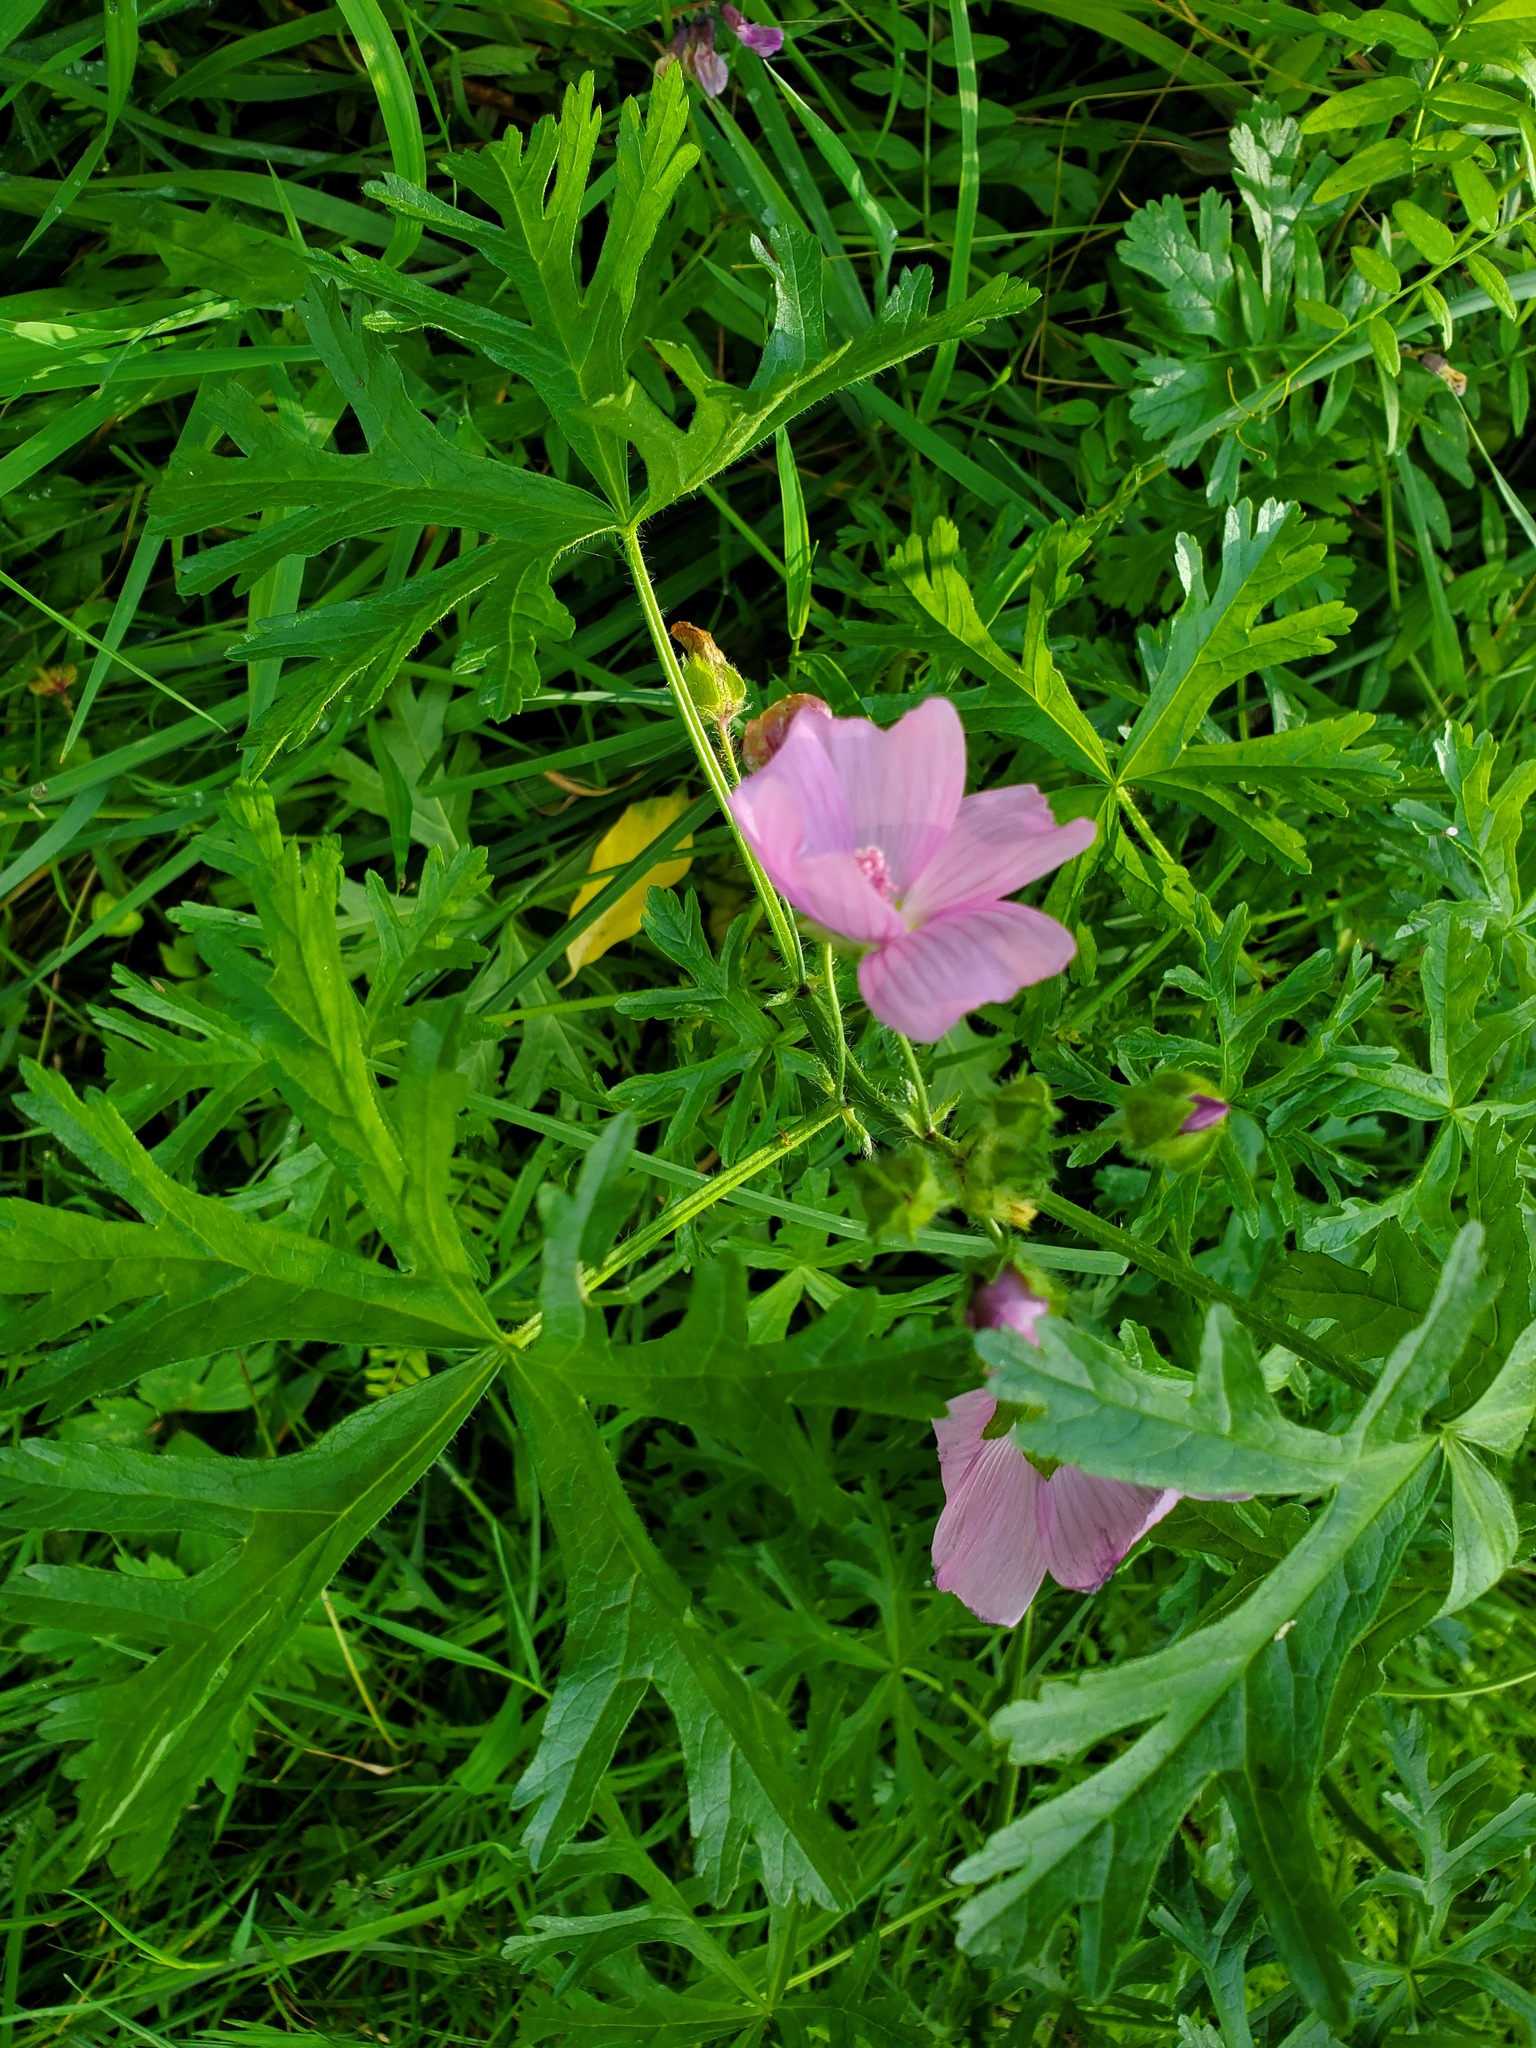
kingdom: Plantae
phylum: Tracheophyta
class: Magnoliopsida
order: Malvales
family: Malvaceae
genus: Malva
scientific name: Malva moschata
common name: Musk mallow
